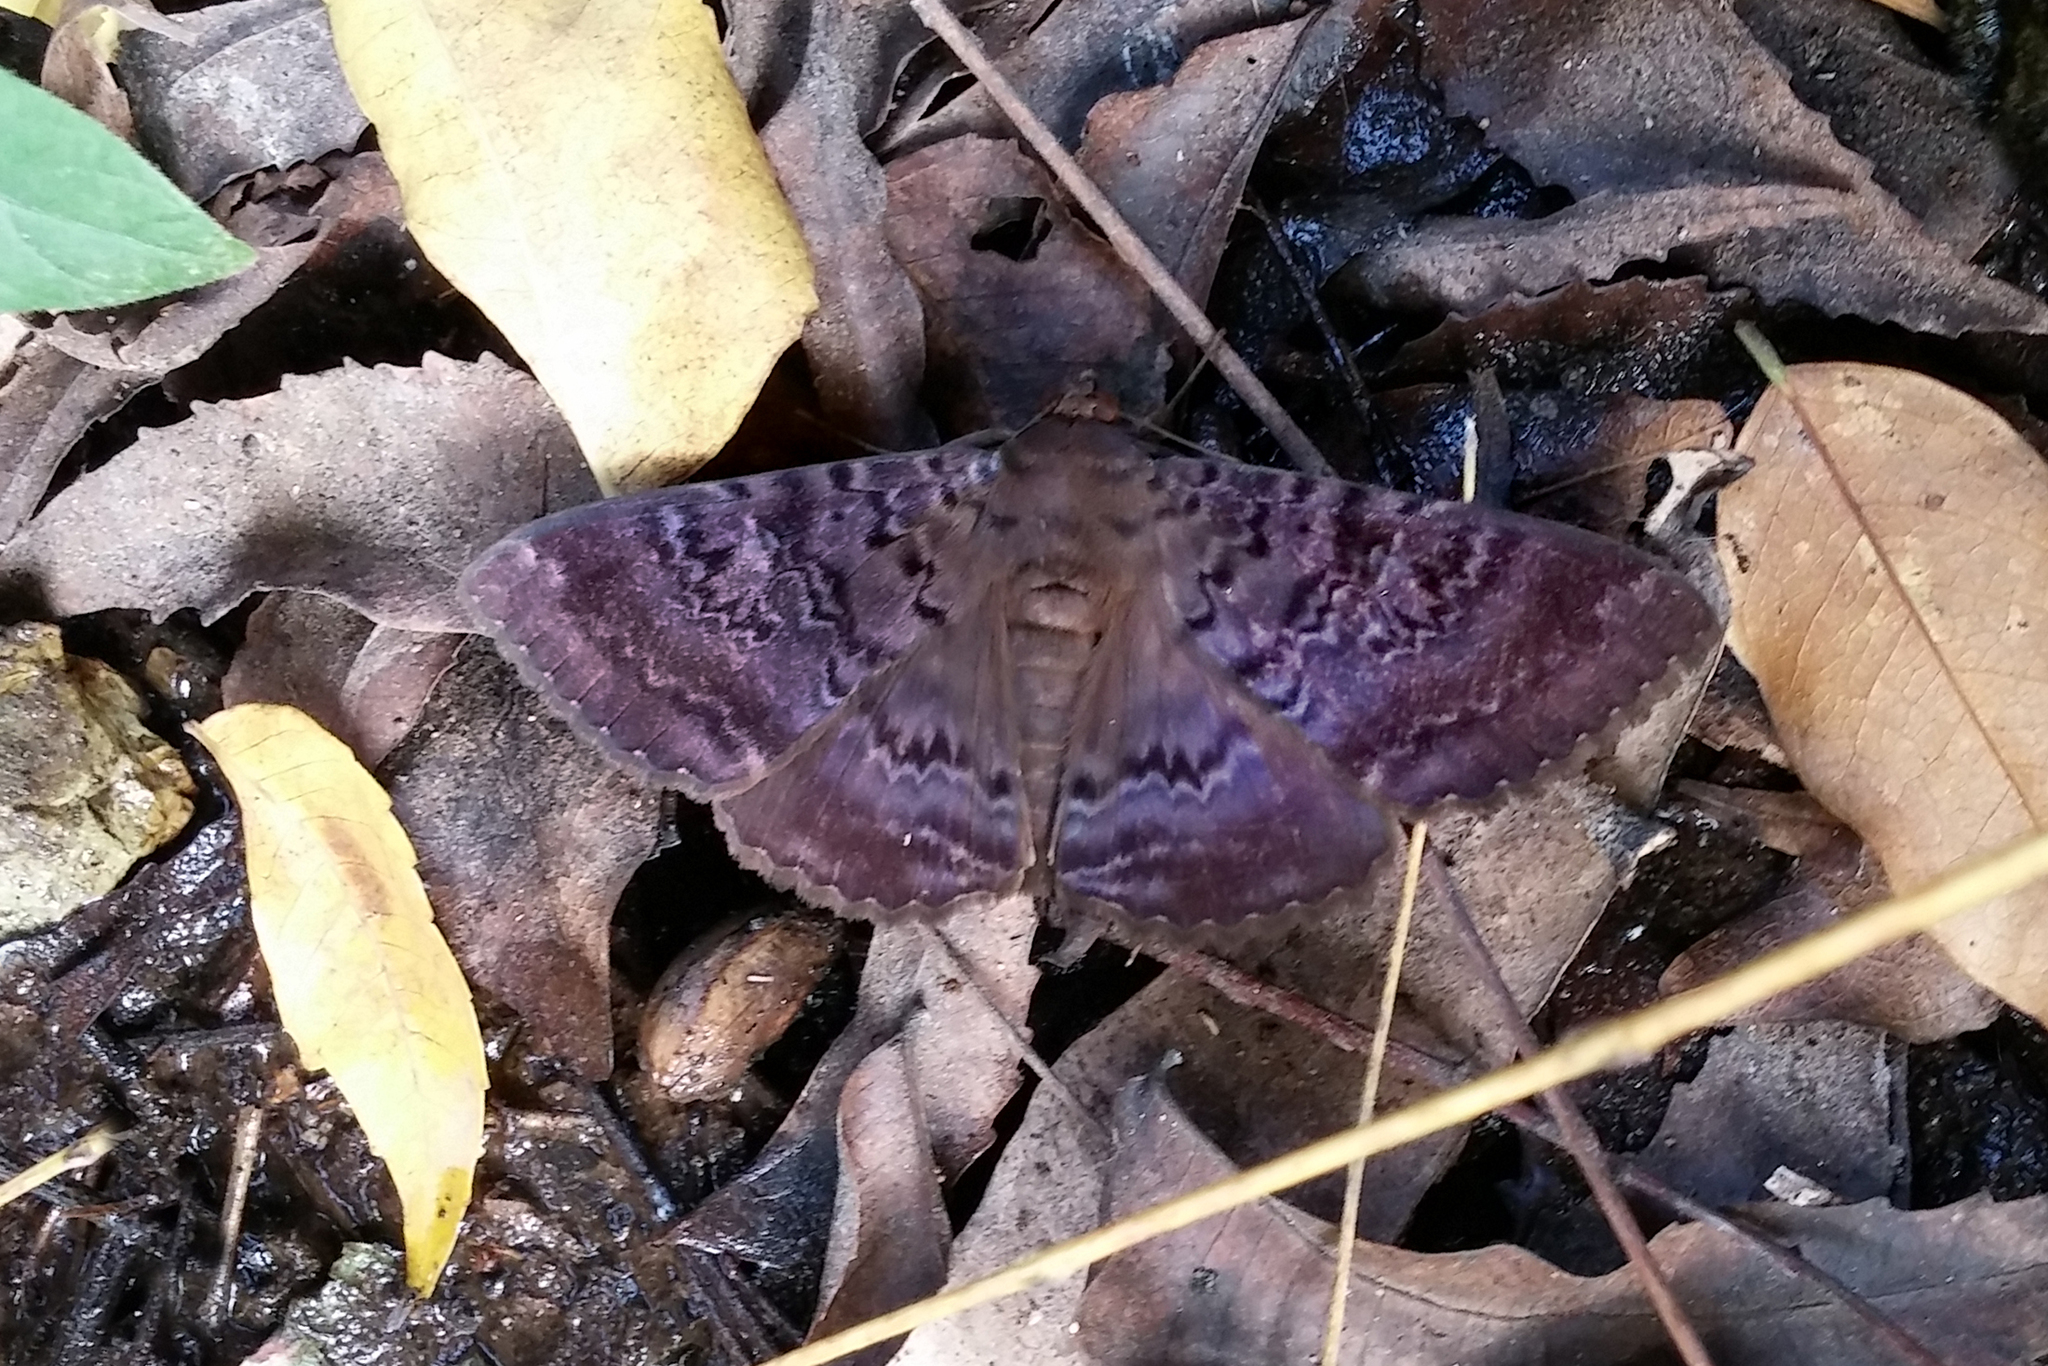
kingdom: Animalia
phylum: Arthropoda
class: Insecta
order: Lepidoptera
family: Erebidae
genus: Speiredonia
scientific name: Speiredonia mutabilis
